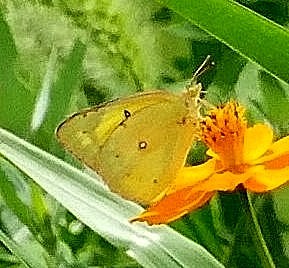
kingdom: Animalia
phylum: Arthropoda
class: Insecta
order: Lepidoptera
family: Pieridae
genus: Colias
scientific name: Colias eurytheme
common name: Alfalfa butterfly
